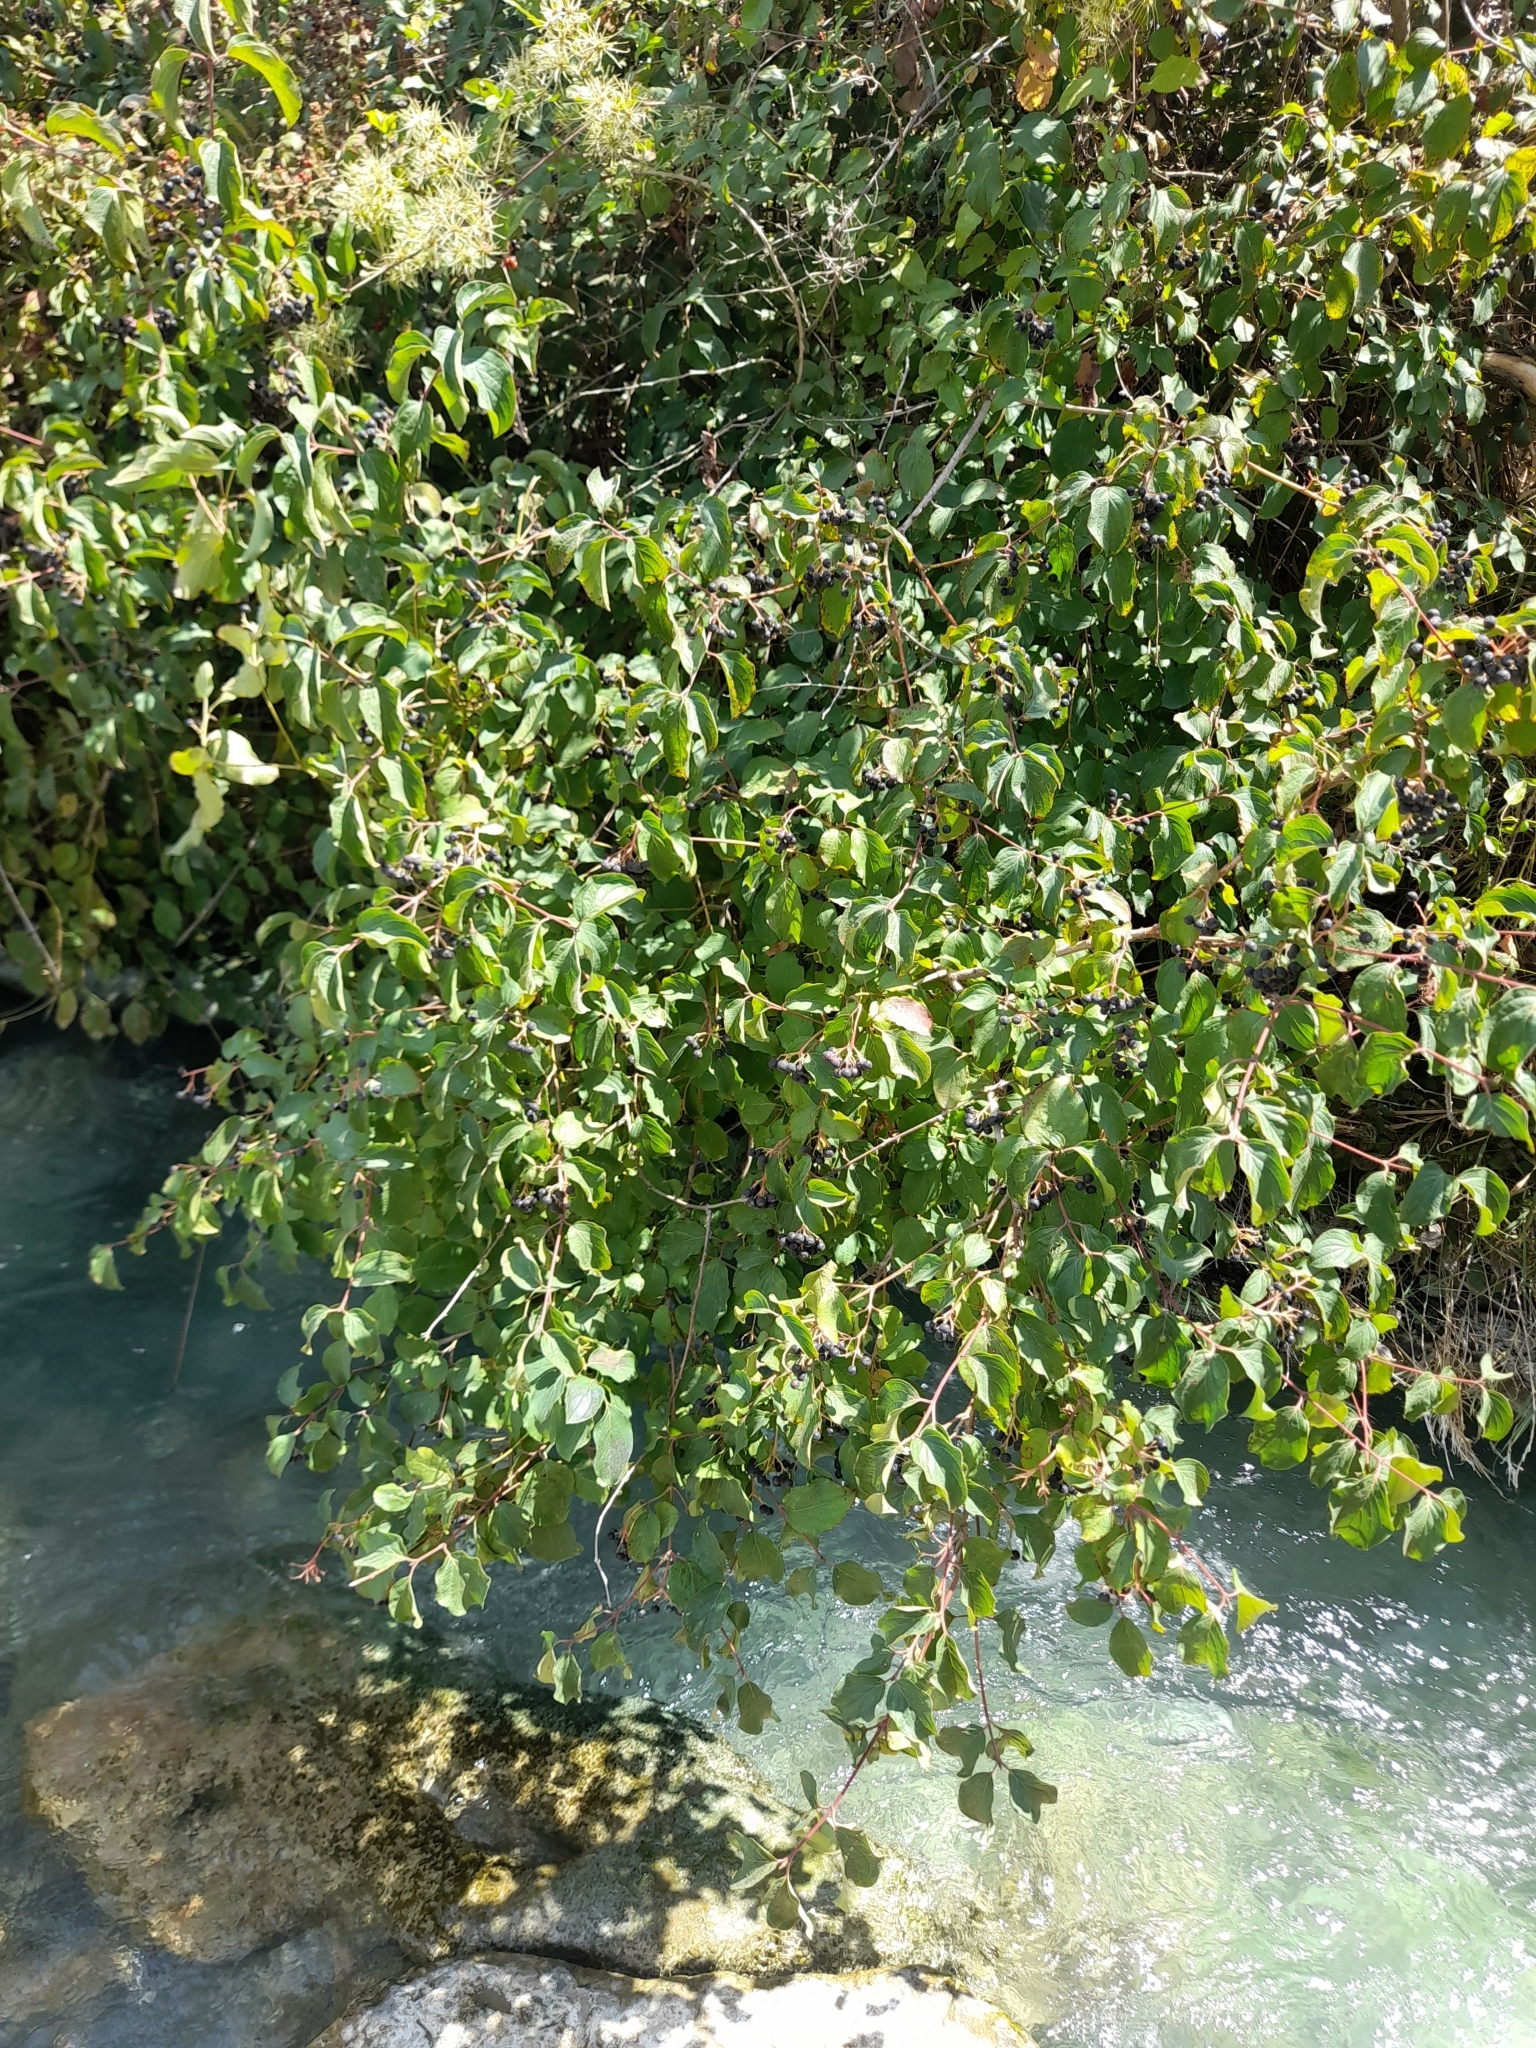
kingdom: Plantae
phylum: Tracheophyta
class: Magnoliopsida
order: Cornales
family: Cornaceae
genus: Cornus
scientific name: Cornus sanguinea
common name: Dogwood
